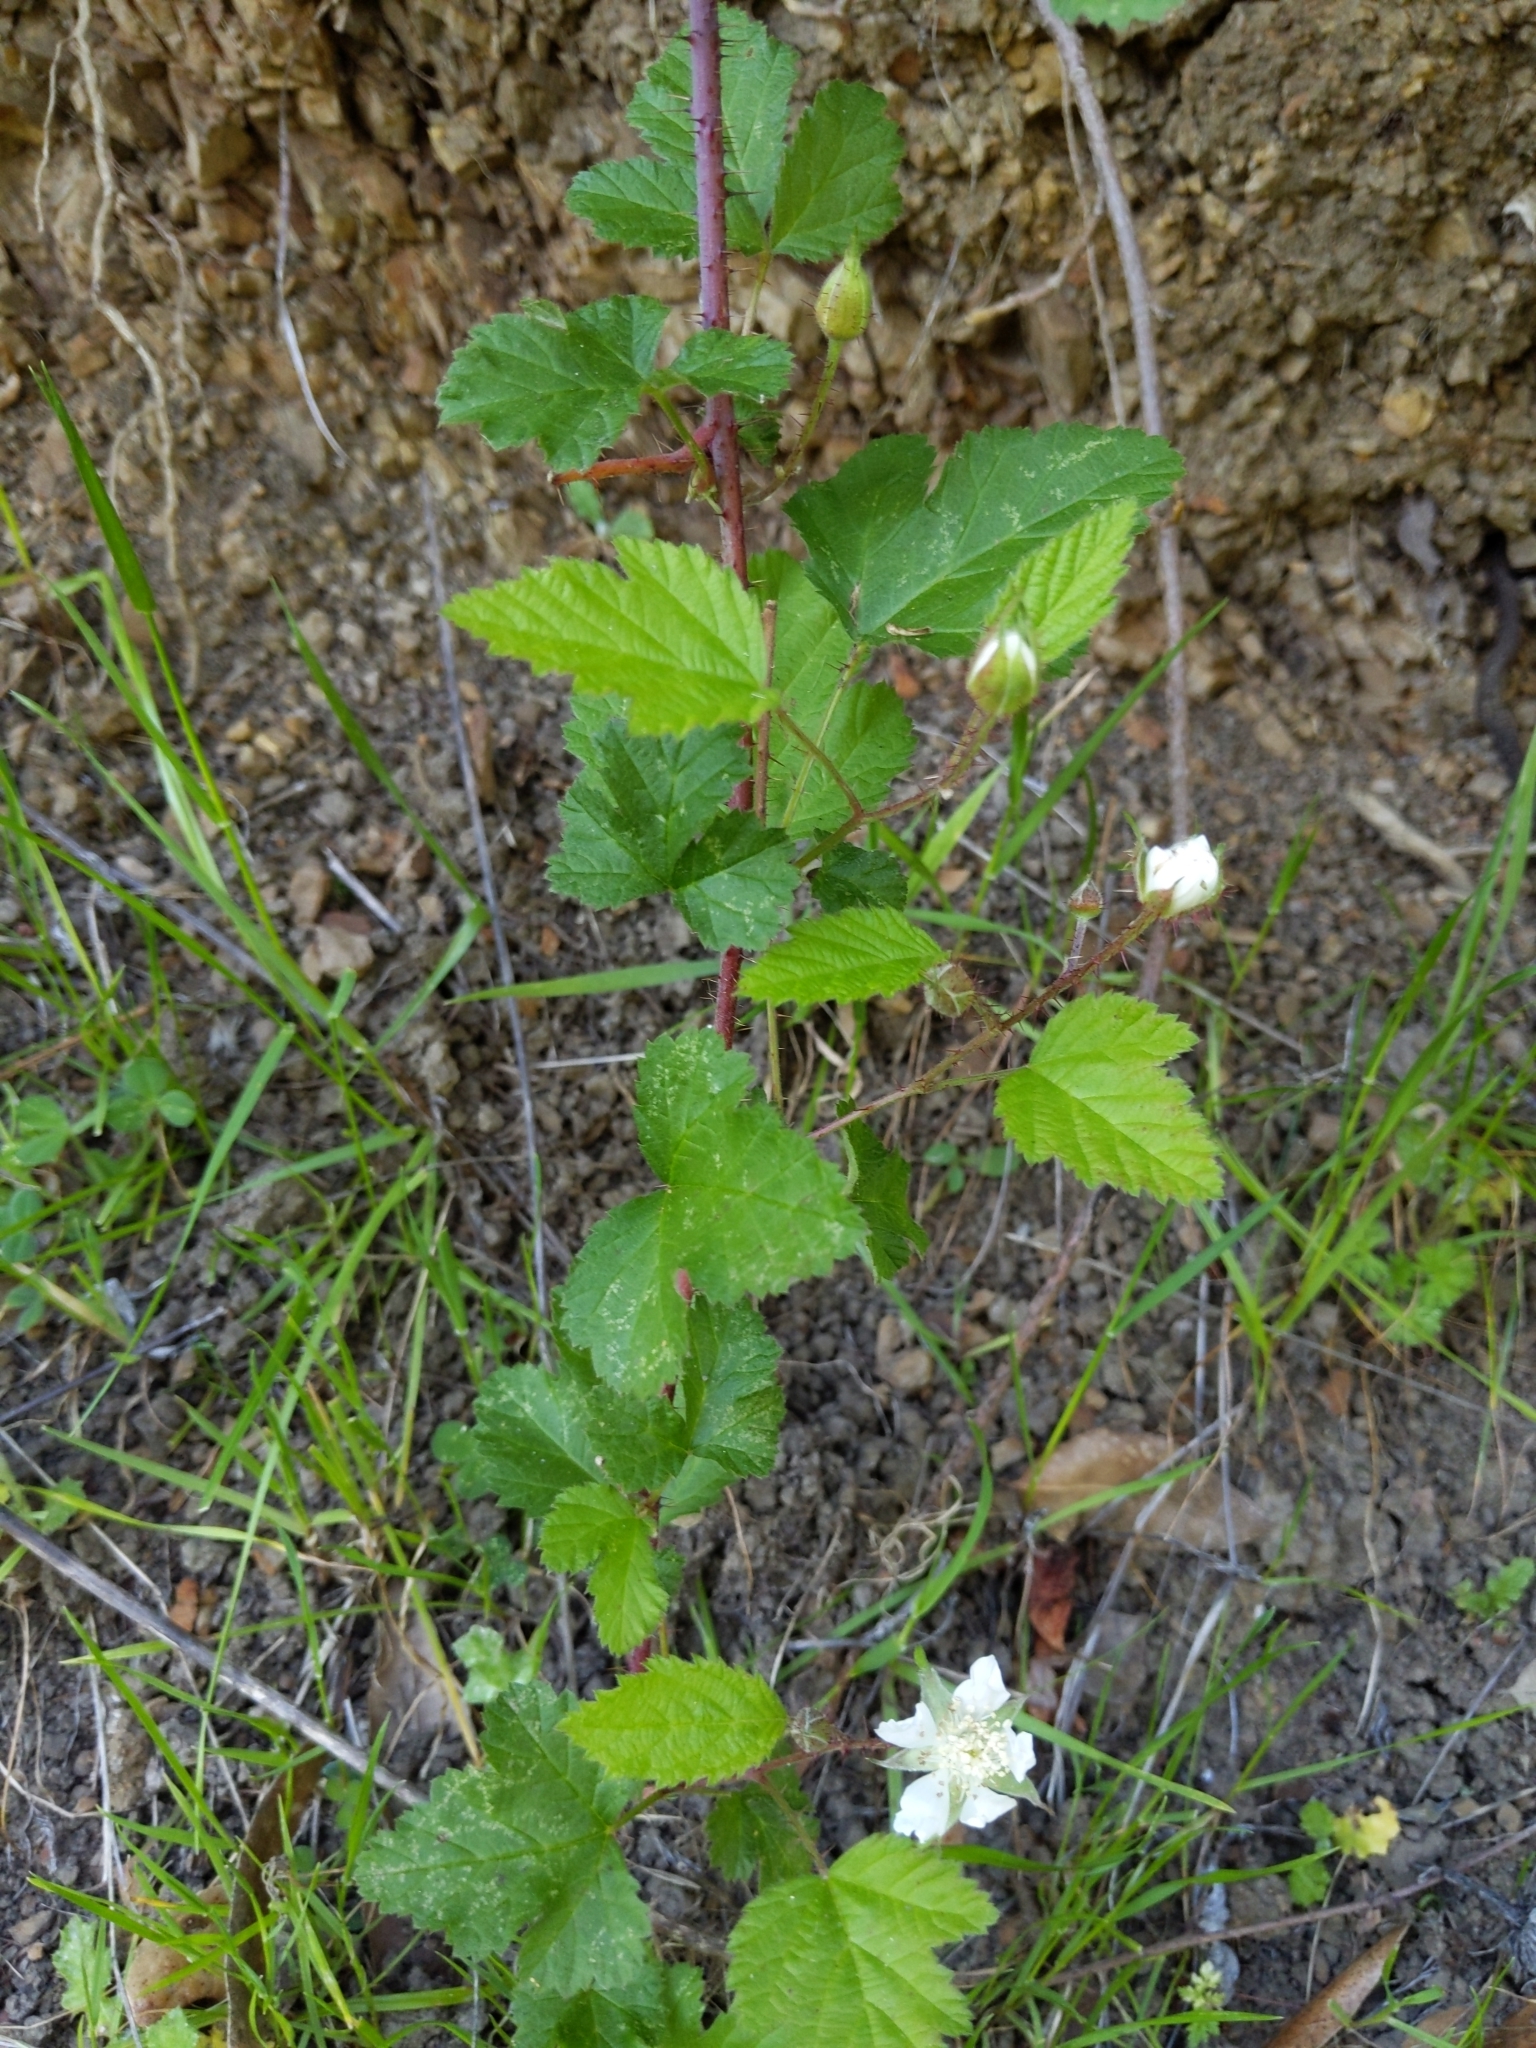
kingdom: Plantae
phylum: Tracheophyta
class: Magnoliopsida
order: Rosales
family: Rosaceae
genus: Rubus
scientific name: Rubus ursinus
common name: Pacific blackberry
